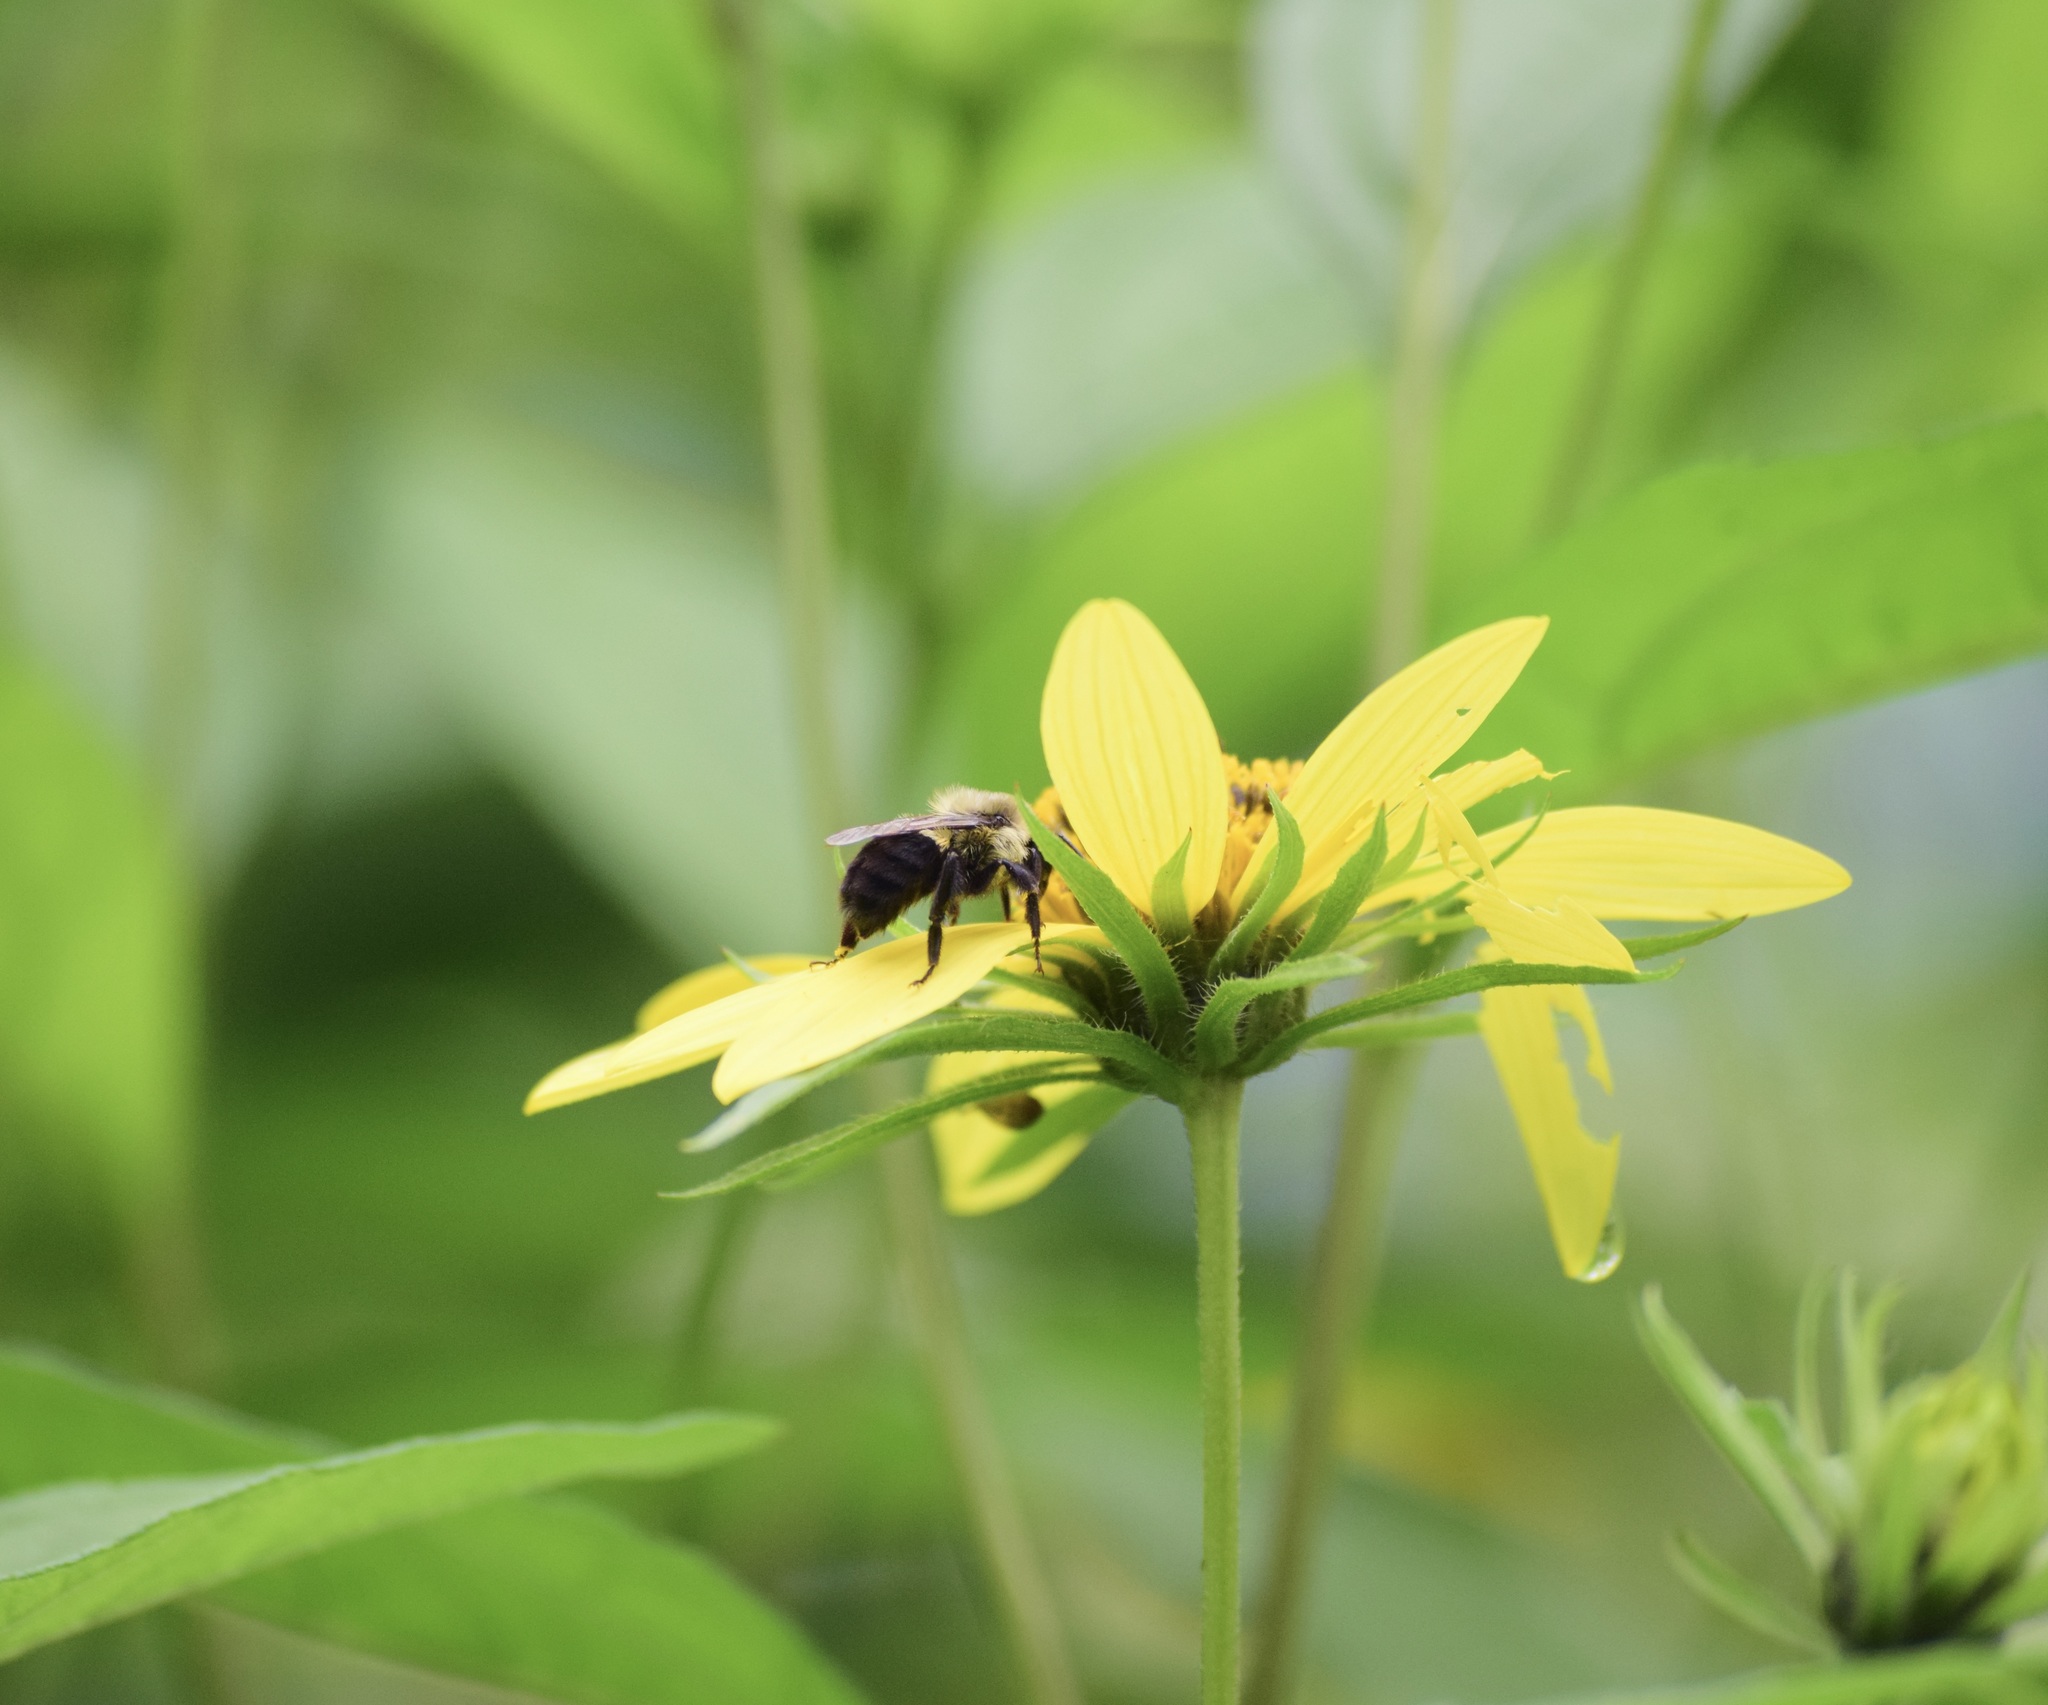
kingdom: Animalia
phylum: Arthropoda
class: Insecta
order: Hymenoptera
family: Apidae
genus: Bombus
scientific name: Bombus impatiens
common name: Common eastern bumble bee
